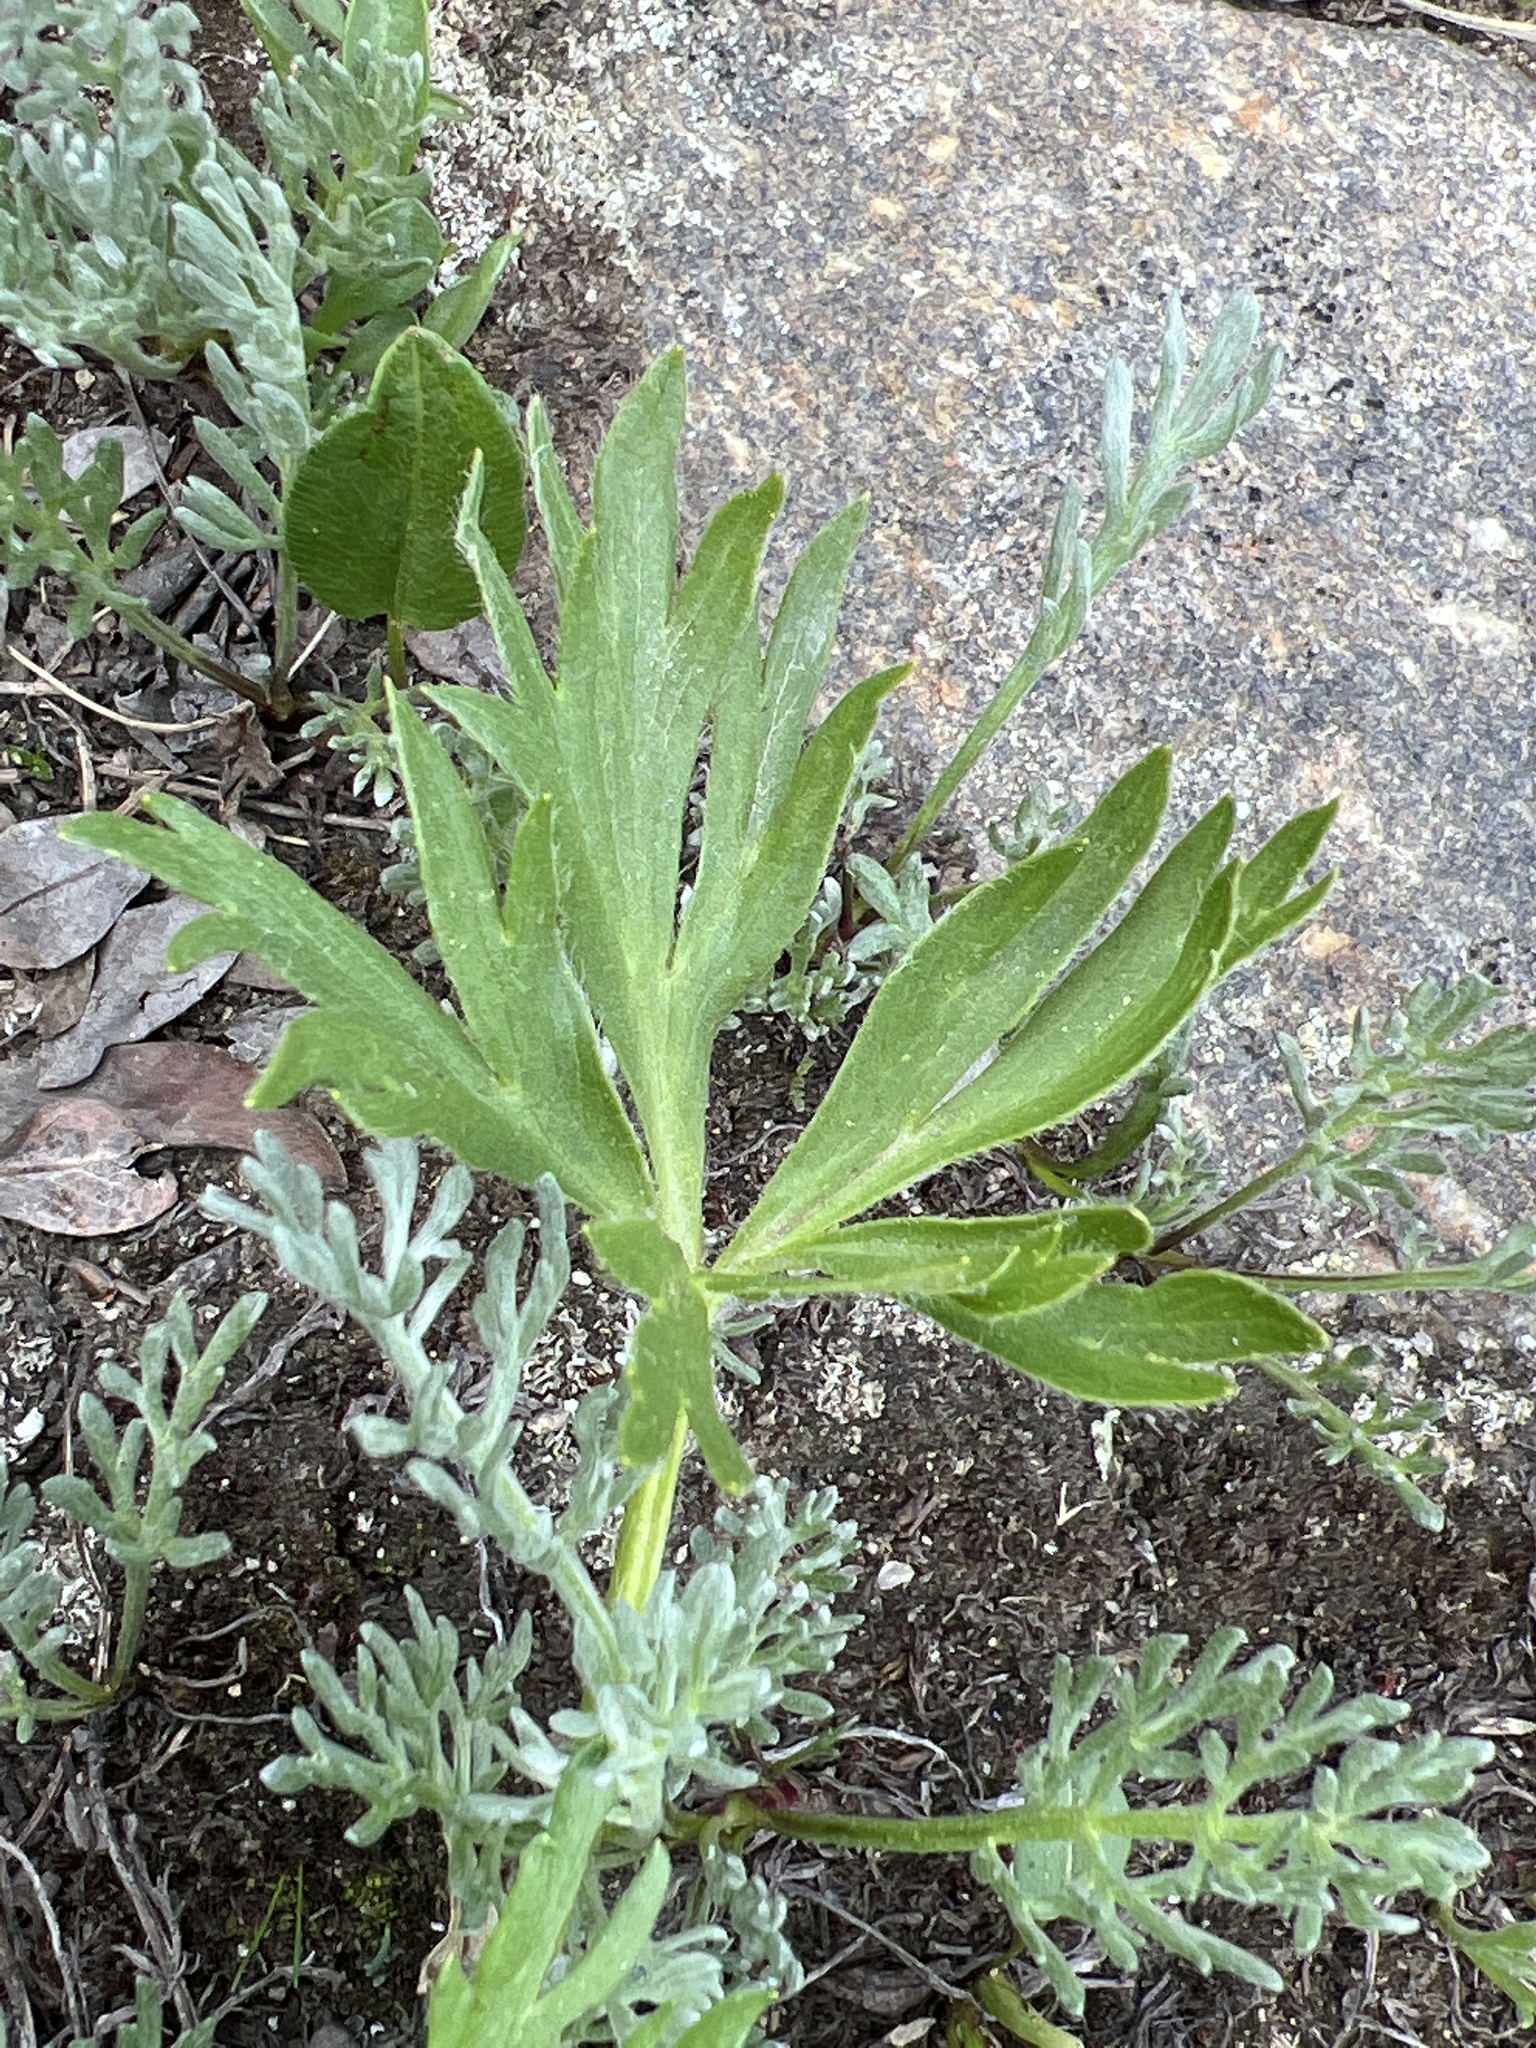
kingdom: Plantae
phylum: Tracheophyta
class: Magnoliopsida
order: Ranunculales
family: Ranunculaceae
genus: Anemonastrum
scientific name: Anemonastrum narcissiflorum
